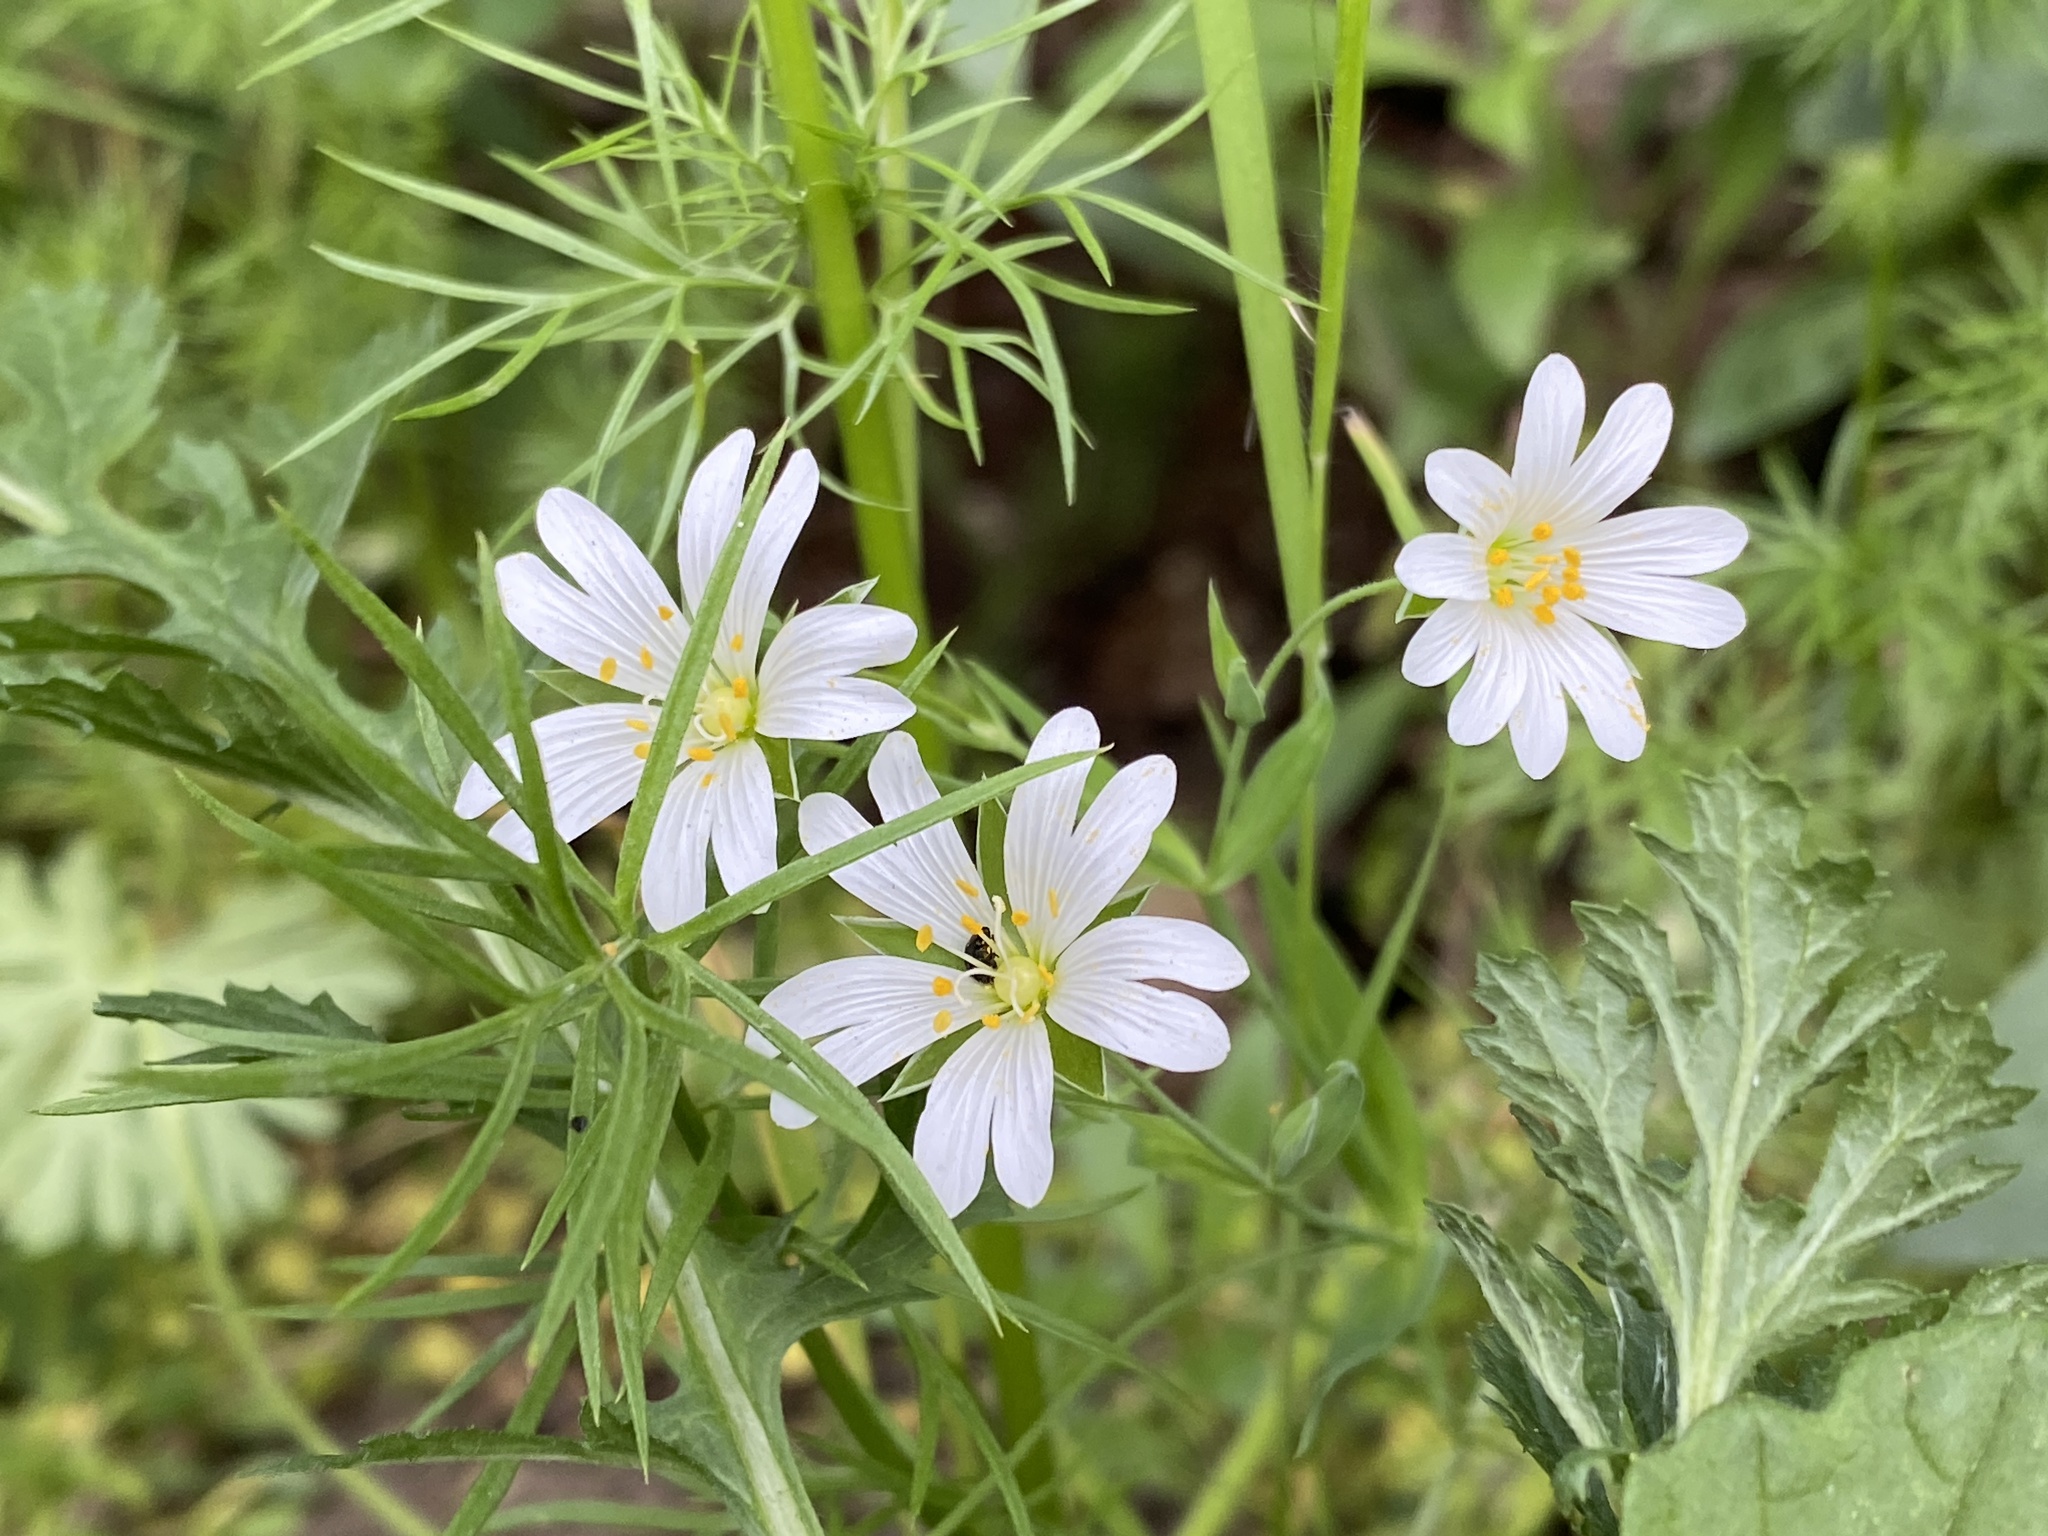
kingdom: Plantae
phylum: Tracheophyta
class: Magnoliopsida
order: Caryophyllales
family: Caryophyllaceae
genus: Rabelera
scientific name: Rabelera holostea
